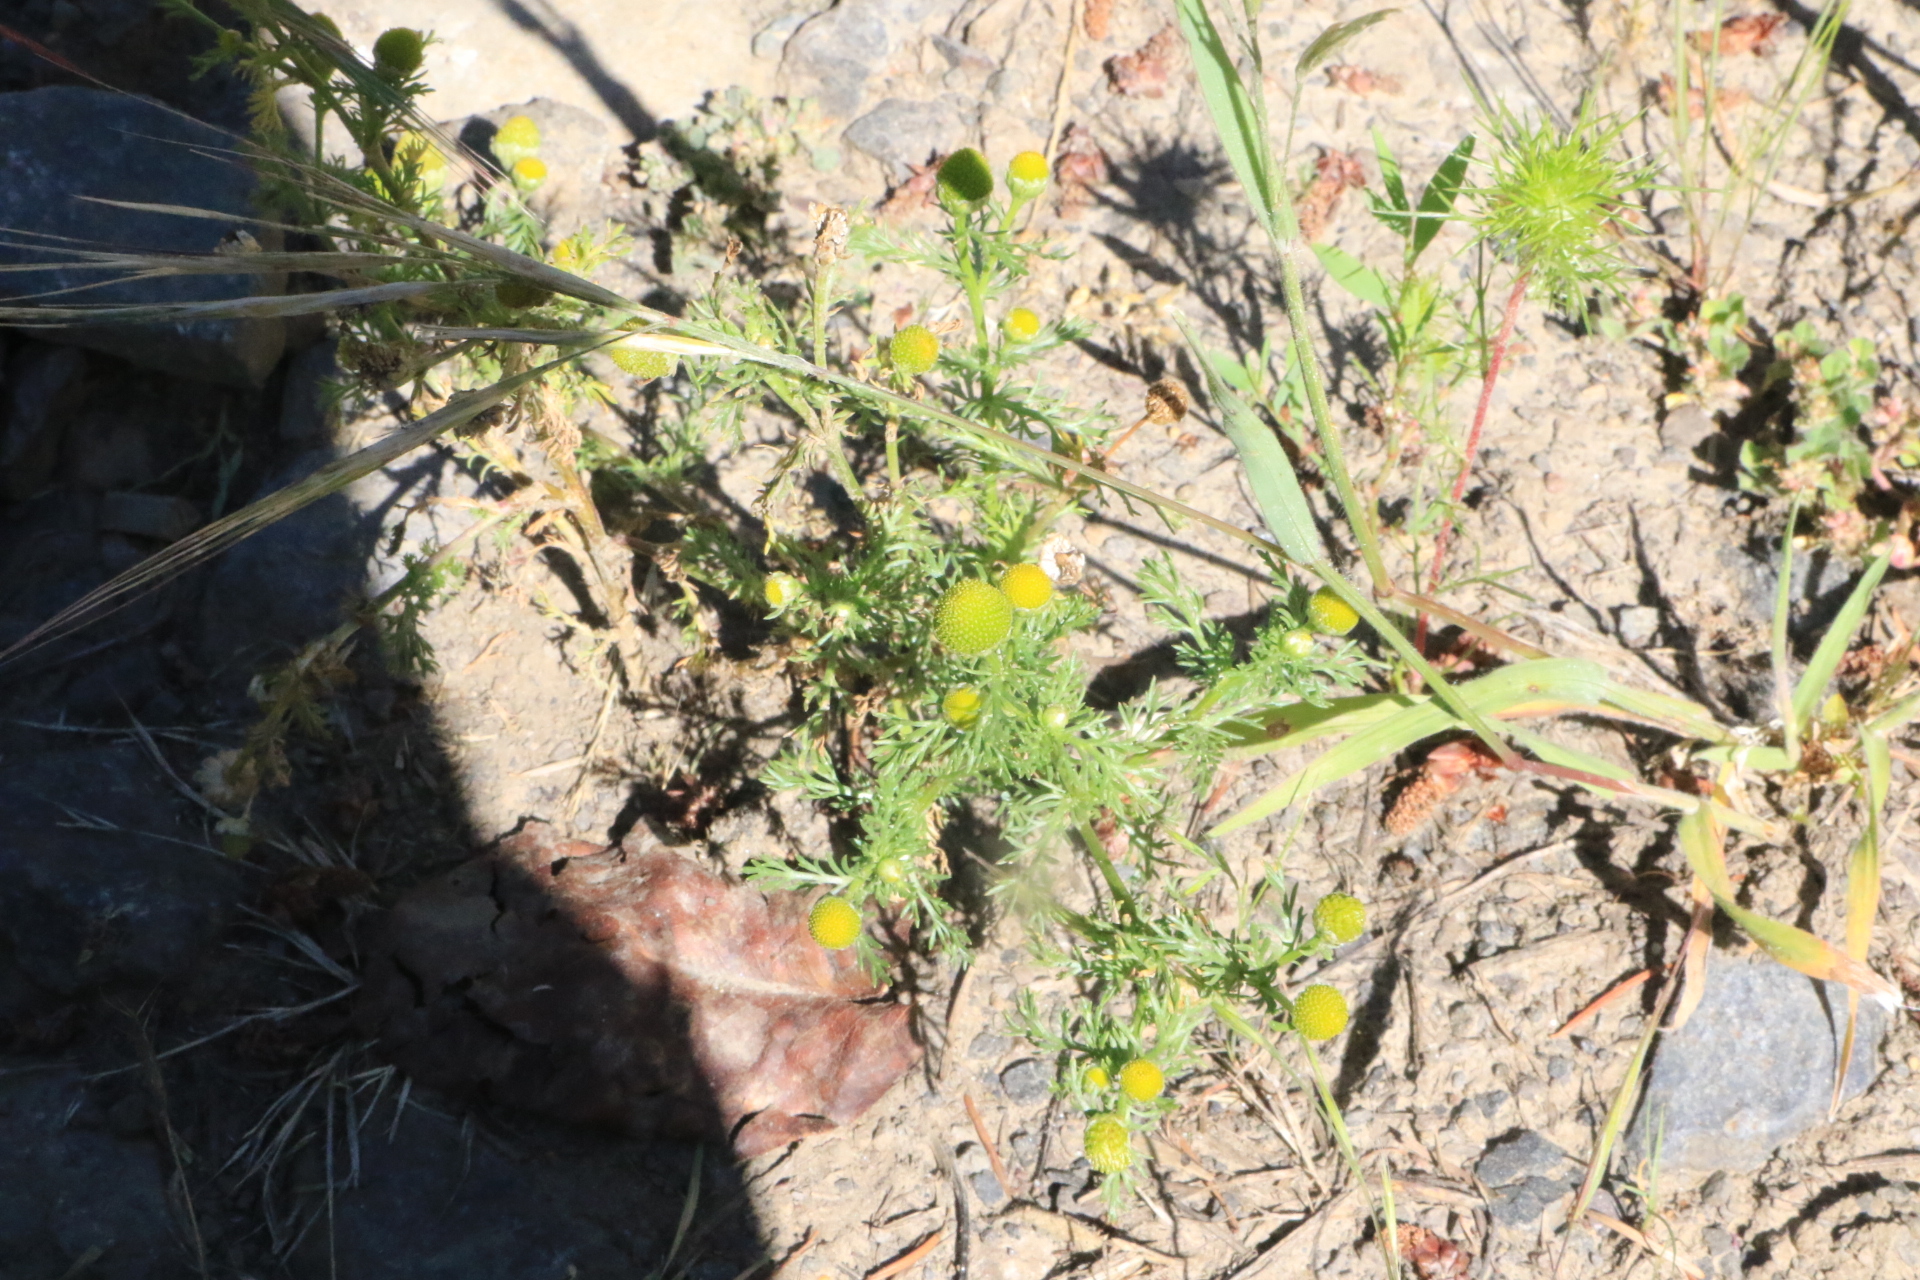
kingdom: Plantae
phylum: Tracheophyta
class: Magnoliopsida
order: Asterales
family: Asteraceae
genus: Matricaria
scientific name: Matricaria discoidea
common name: Disc mayweed
